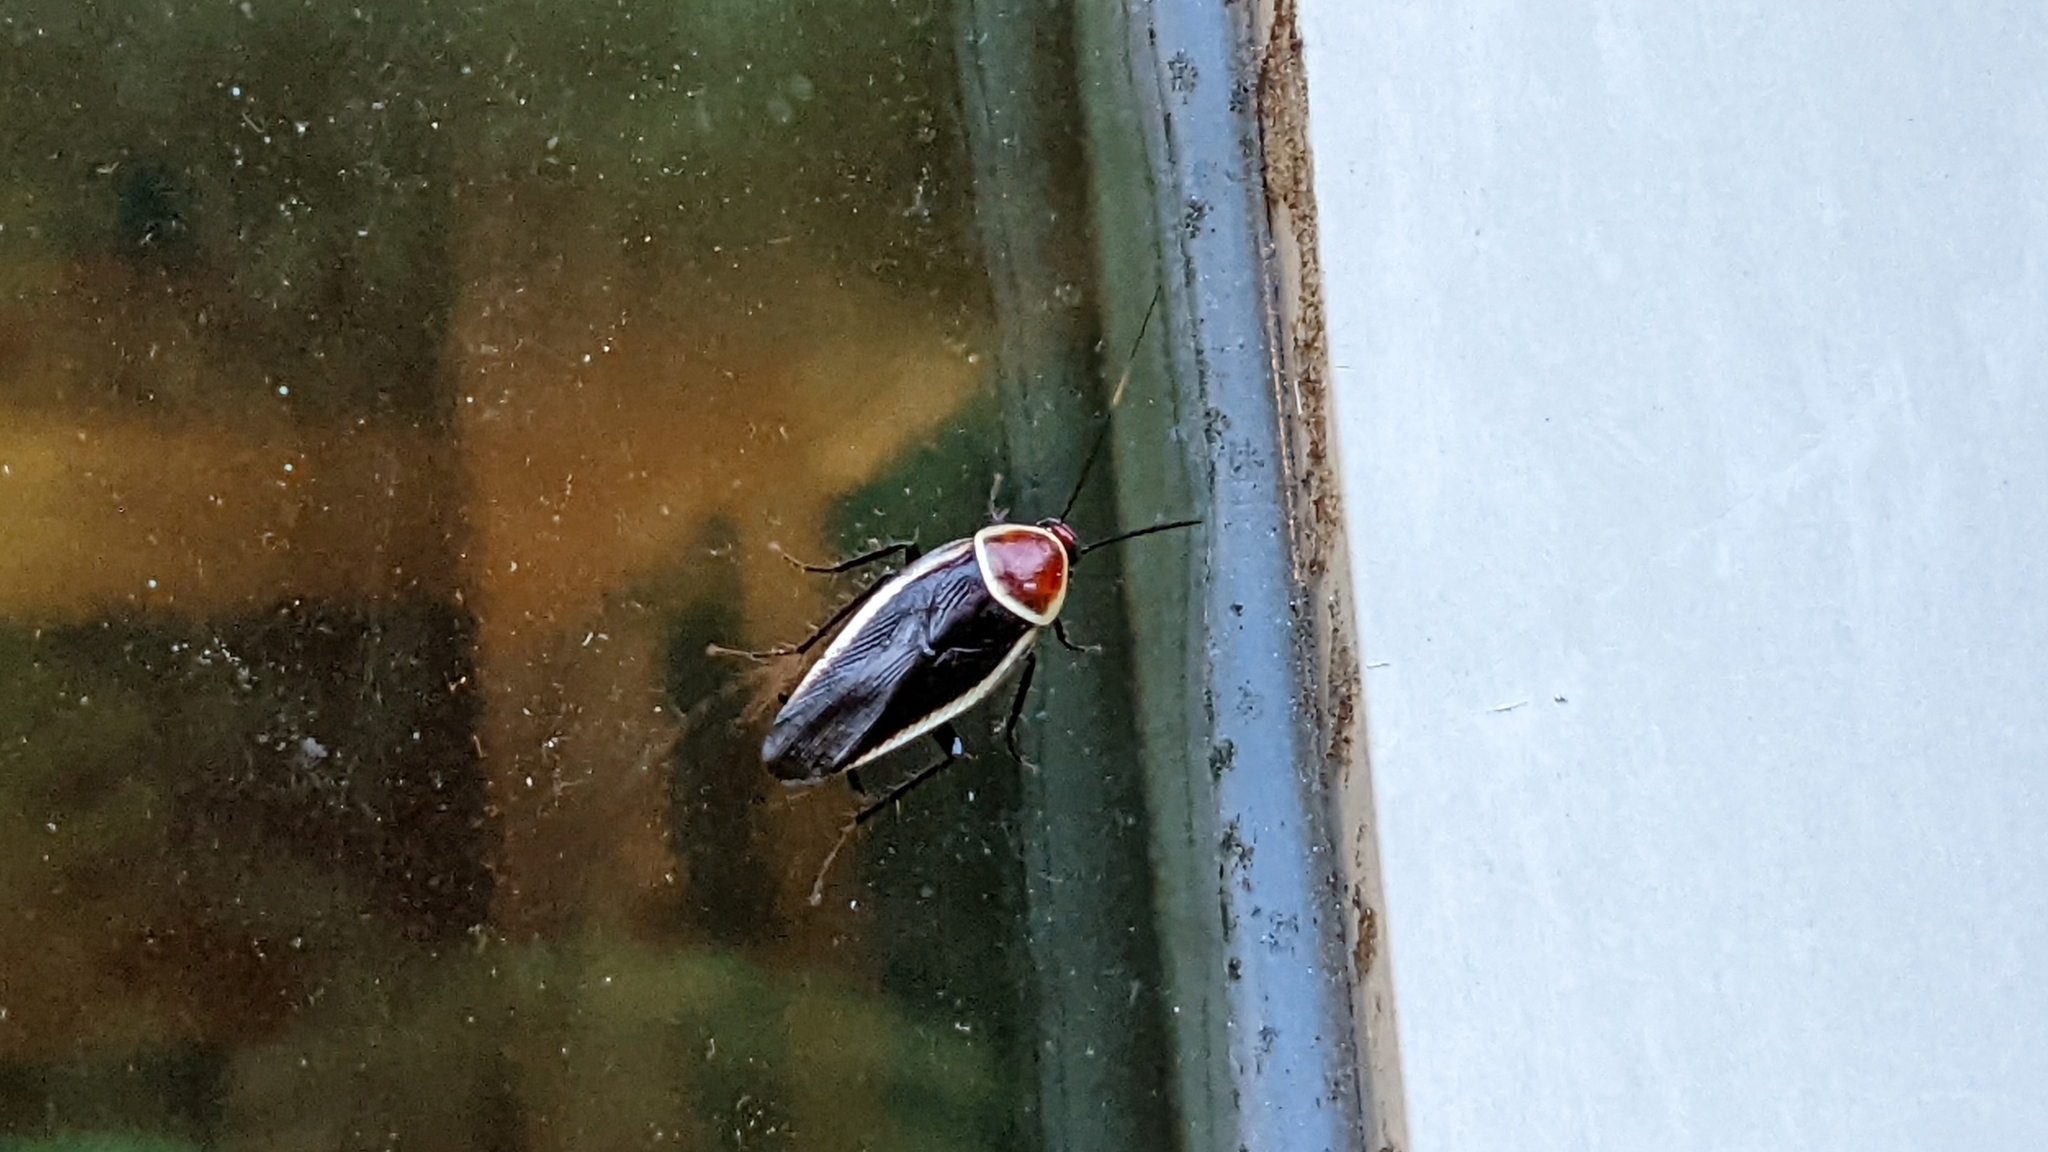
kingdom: Animalia
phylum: Arthropoda
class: Insecta
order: Blattodea
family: Ectobiidae
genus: Pseudomops
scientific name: Pseudomops septentrionalis
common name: Pale-bordered field cockroach
